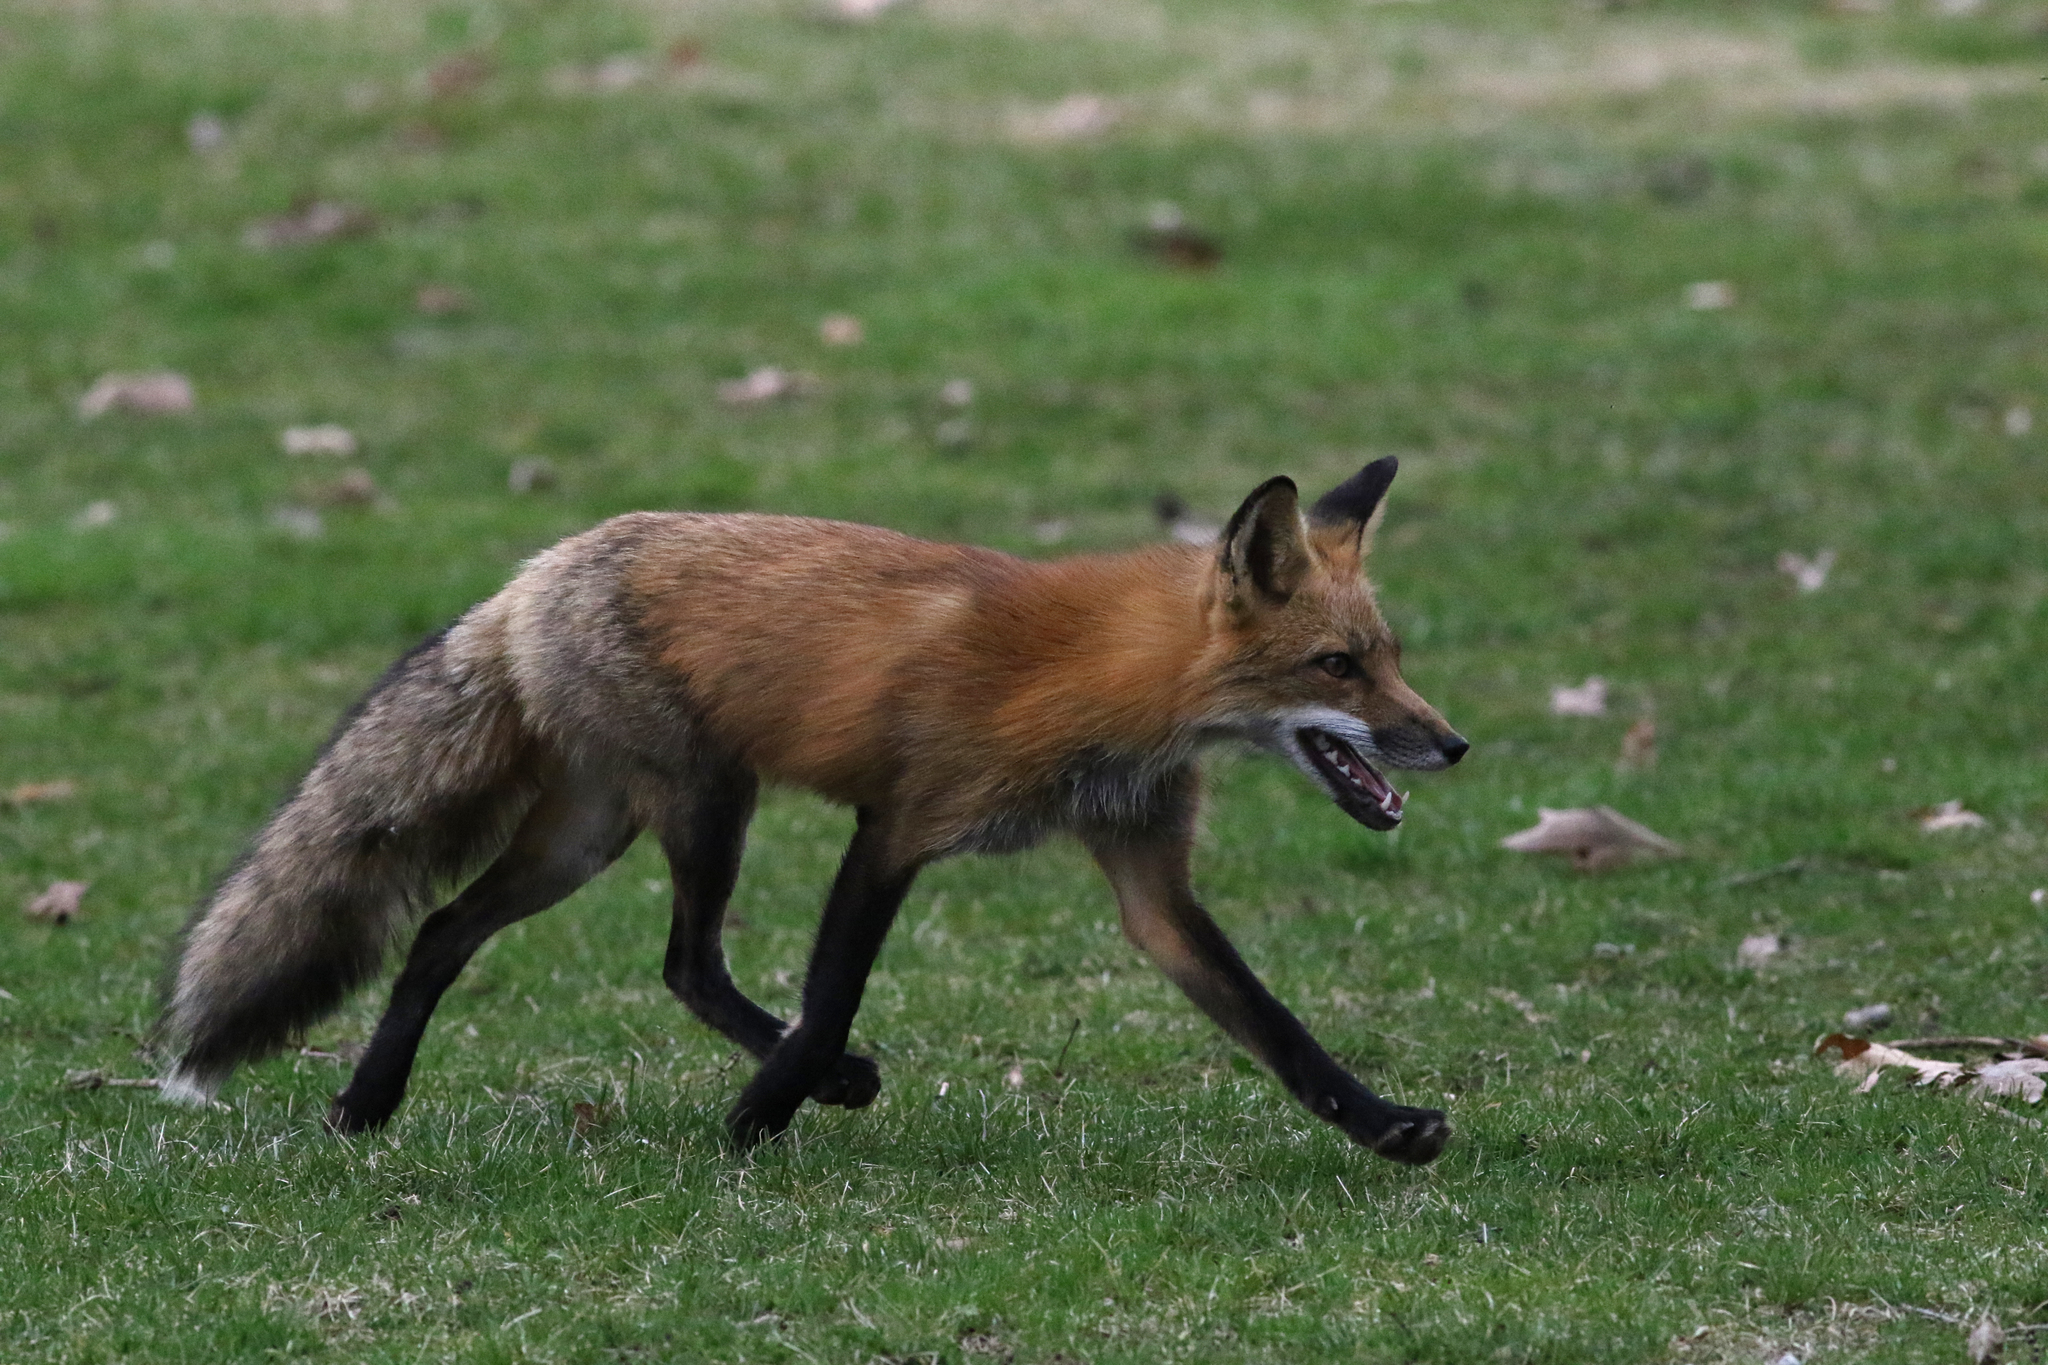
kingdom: Animalia
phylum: Chordata
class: Mammalia
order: Carnivora
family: Canidae
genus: Vulpes
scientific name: Vulpes vulpes
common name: Red fox
